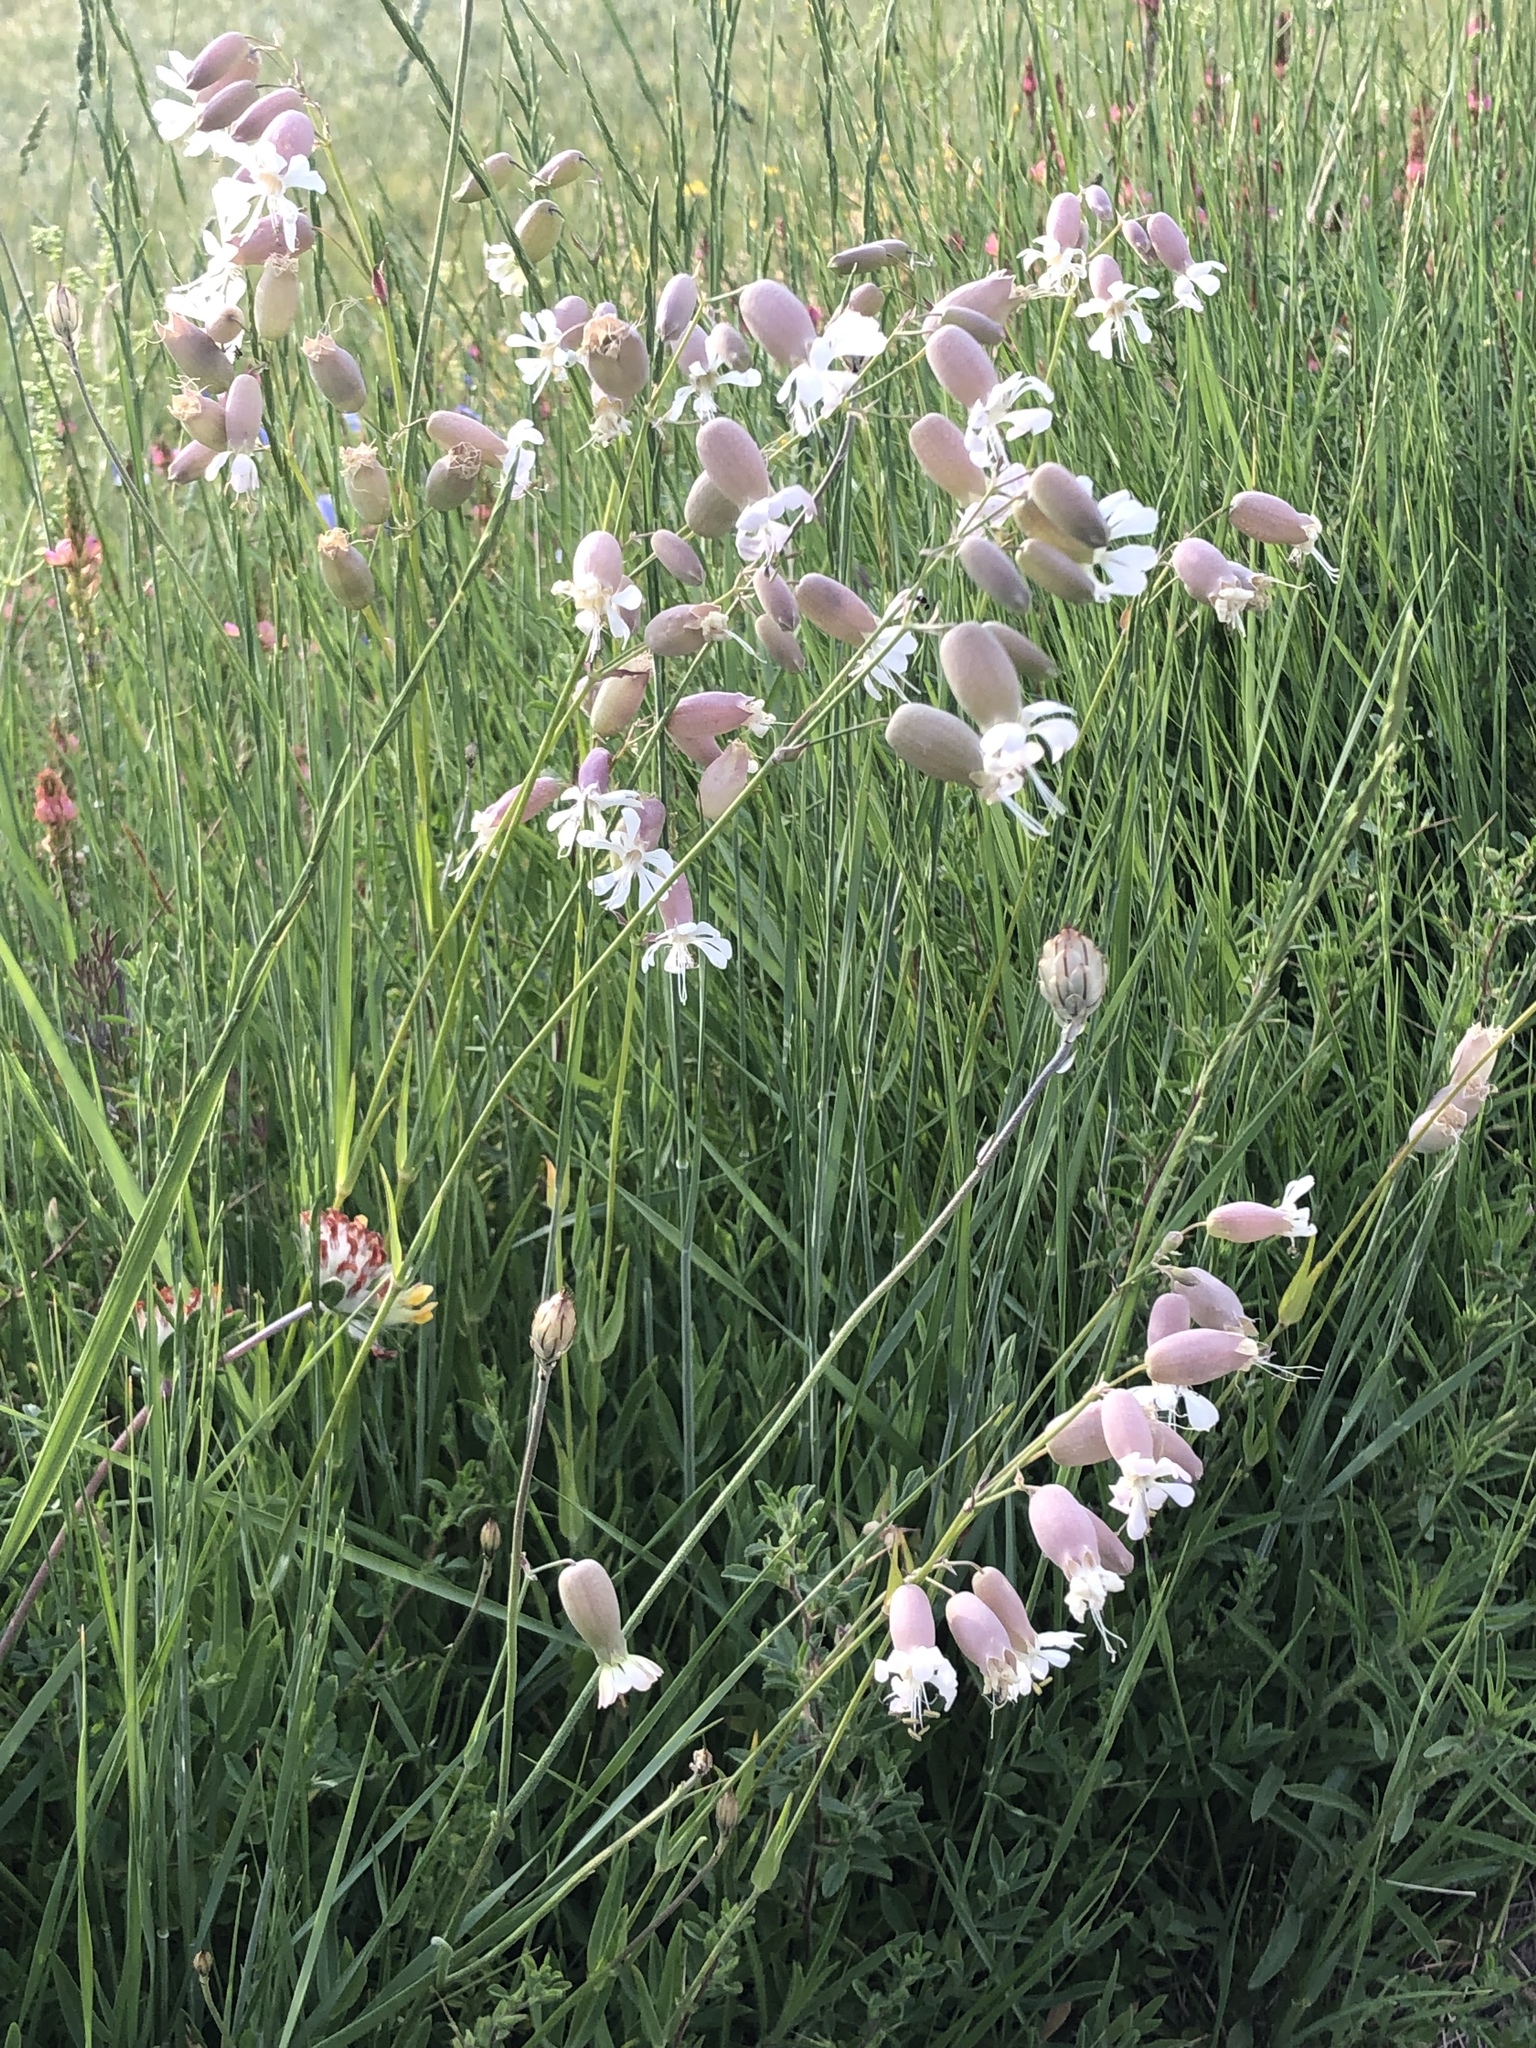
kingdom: Plantae
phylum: Tracheophyta
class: Magnoliopsida
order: Caryophyllales
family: Caryophyllaceae
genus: Silene
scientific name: Silene vulgaris
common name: Bladder campion
